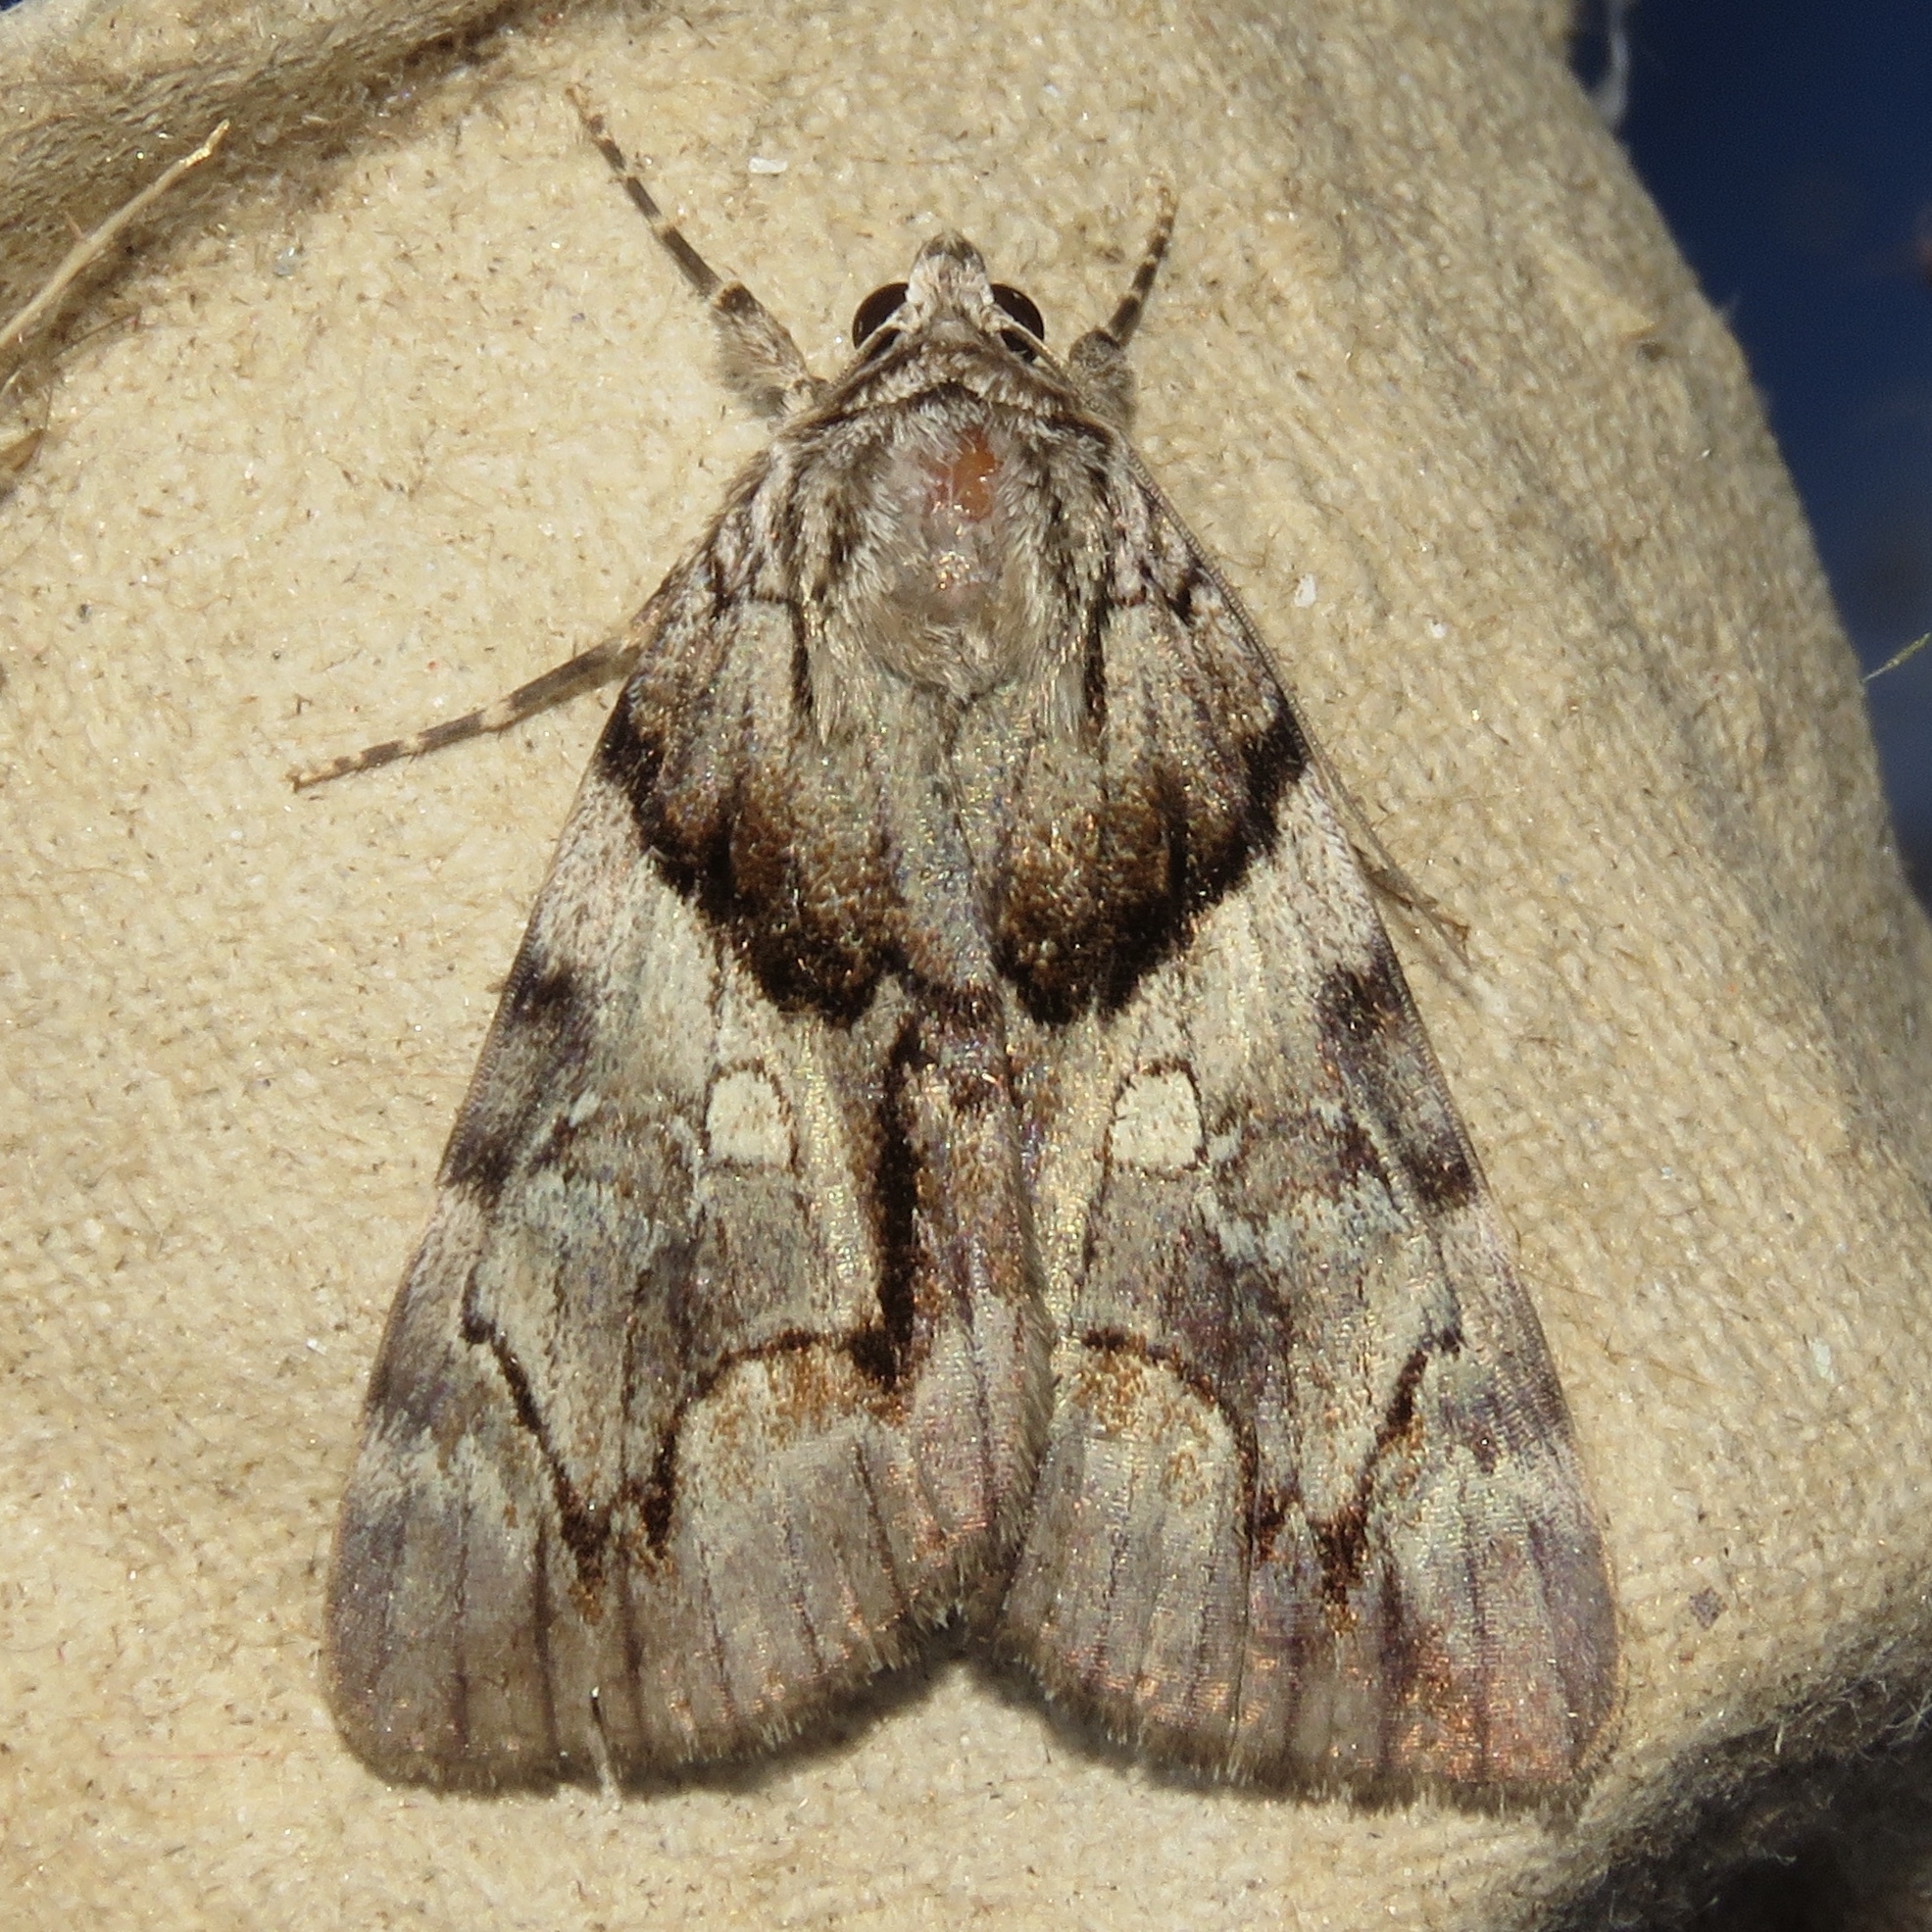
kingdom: Animalia
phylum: Arthropoda
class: Insecta
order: Lepidoptera
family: Erebidae
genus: Catocala
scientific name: Catocala blandula
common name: Charming underwing
